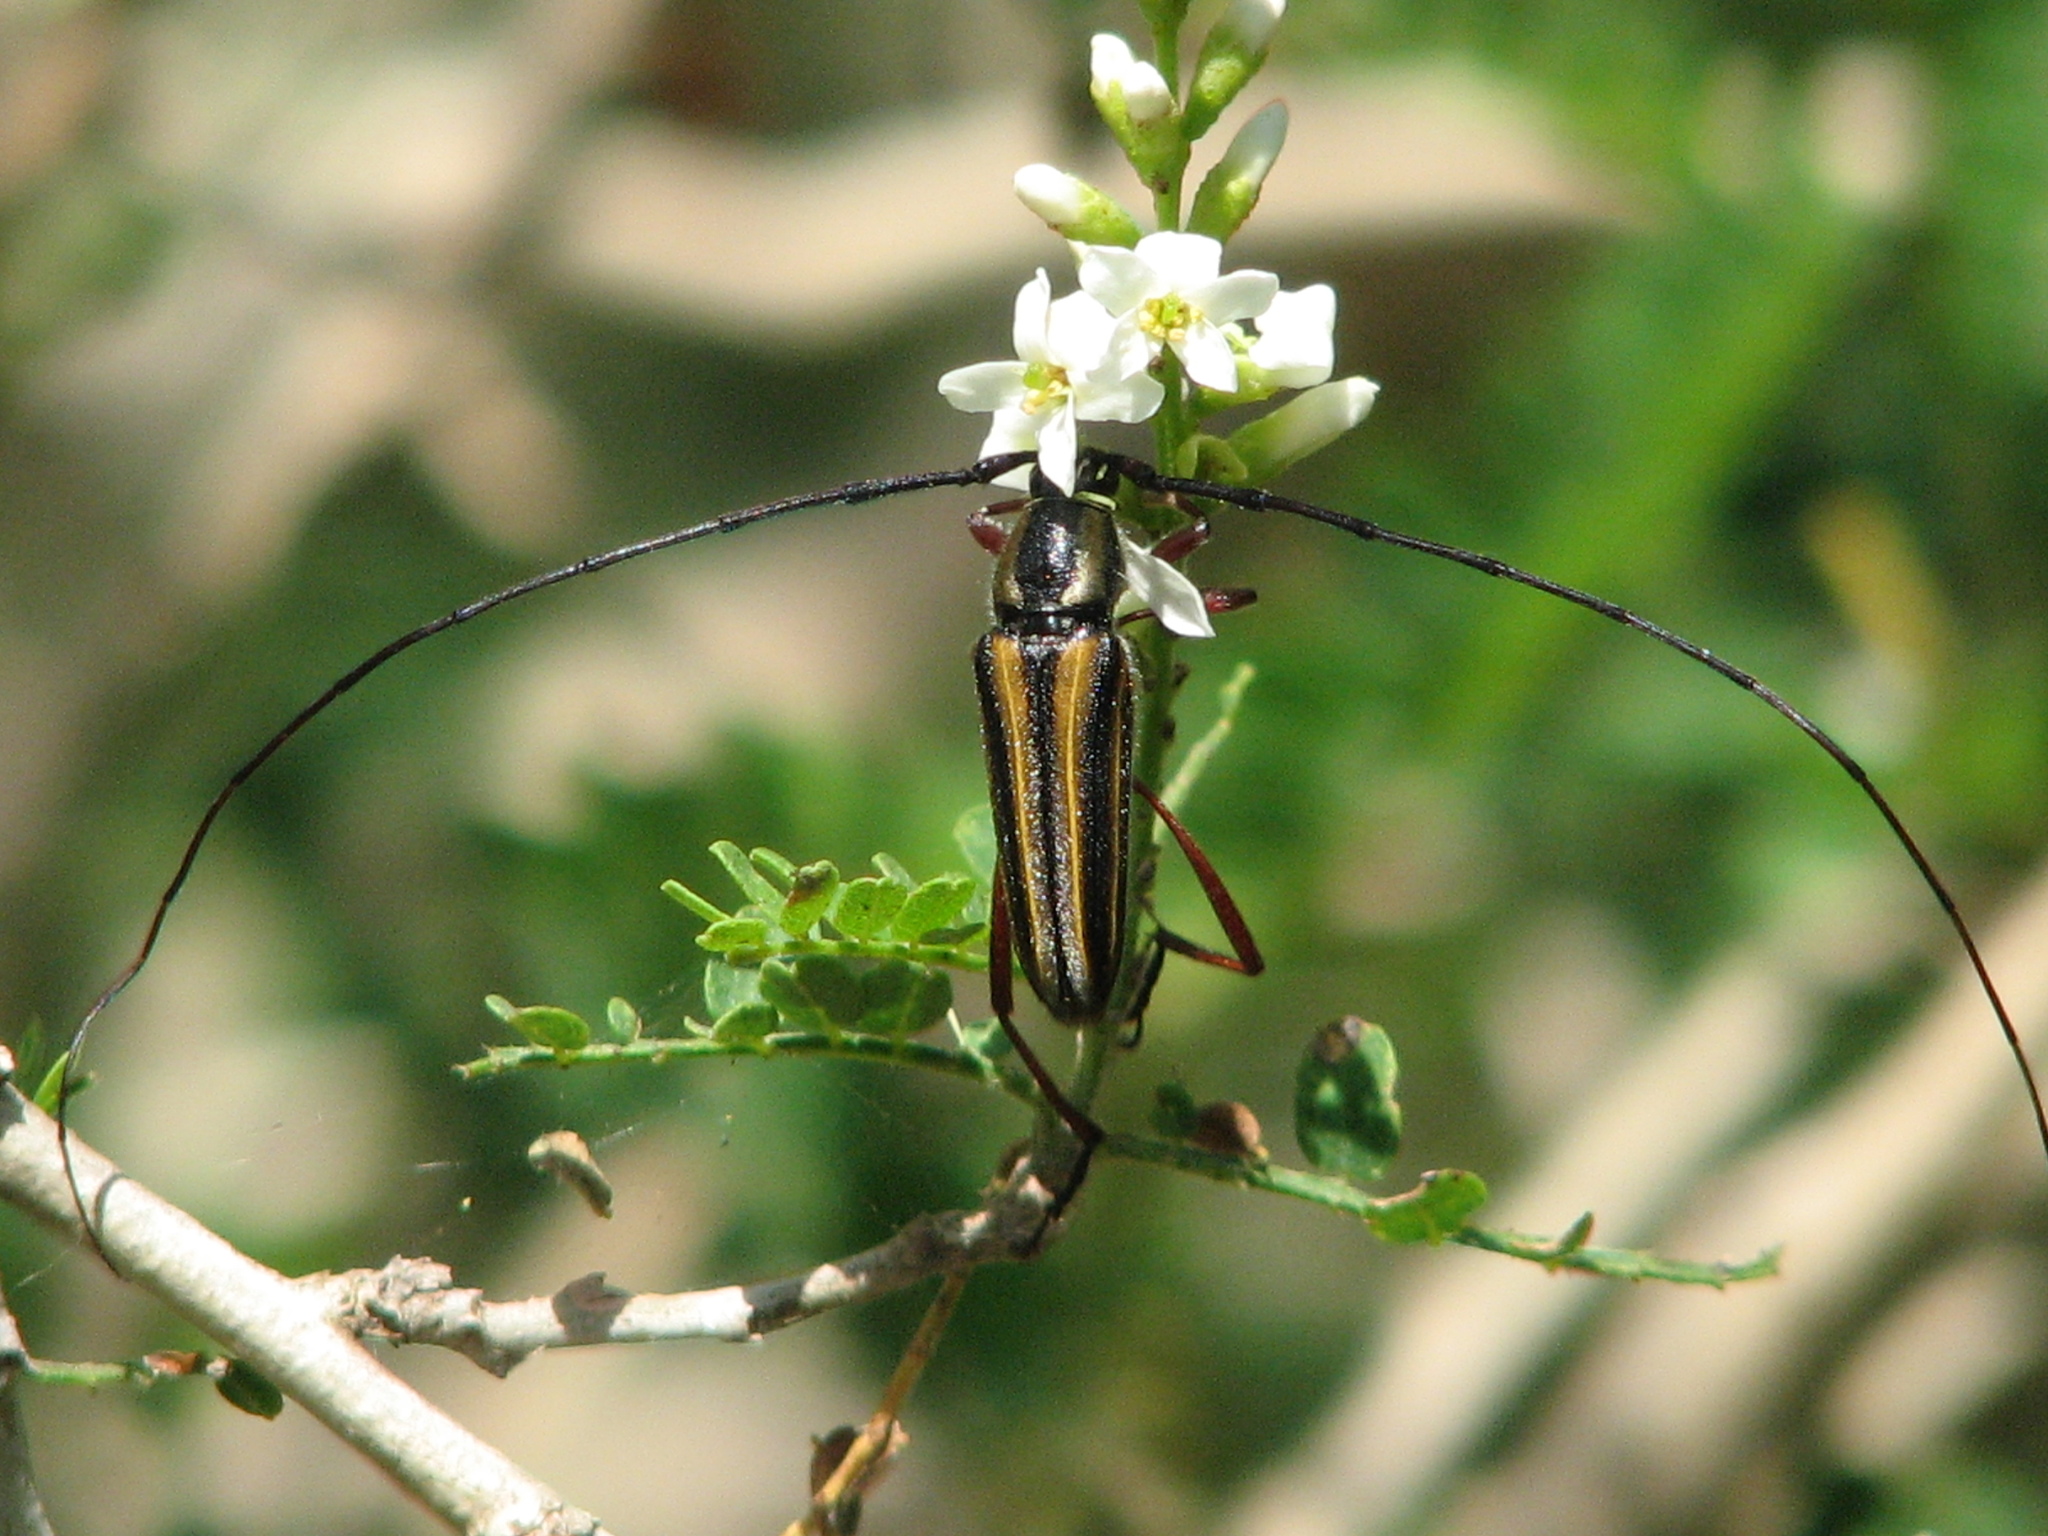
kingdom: Animalia
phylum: Arthropoda
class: Insecta
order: Coleoptera
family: Cerambycidae
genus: Sphaenothecus
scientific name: Sphaenothecus bilineatus
